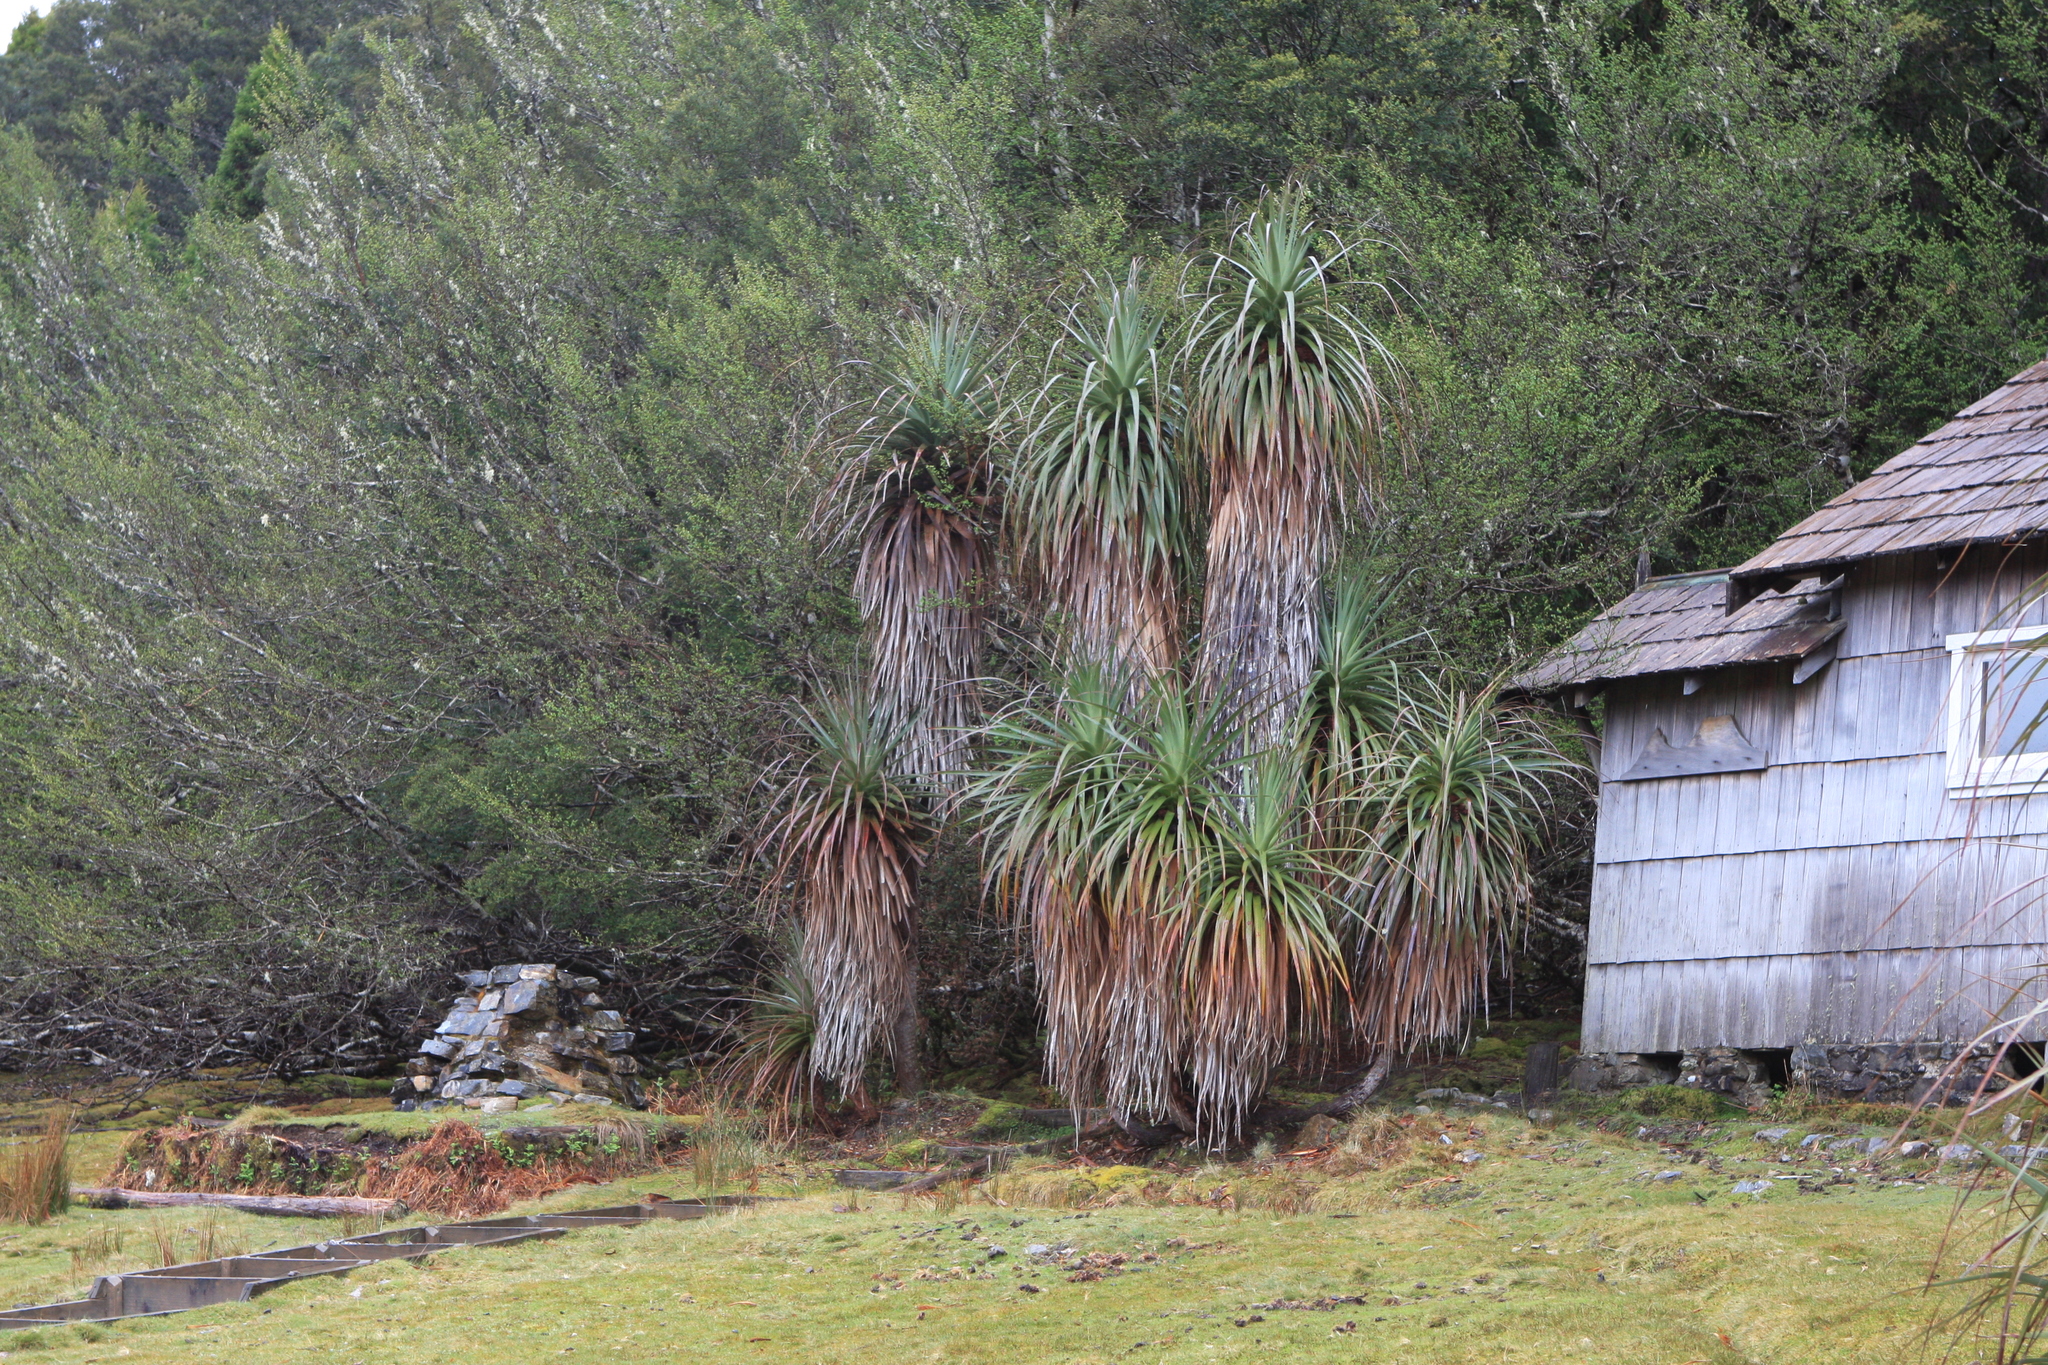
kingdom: Plantae
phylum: Tracheophyta
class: Magnoliopsida
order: Ericales
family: Ericaceae
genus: Dracophyllum
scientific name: Dracophyllum pandanifolium
